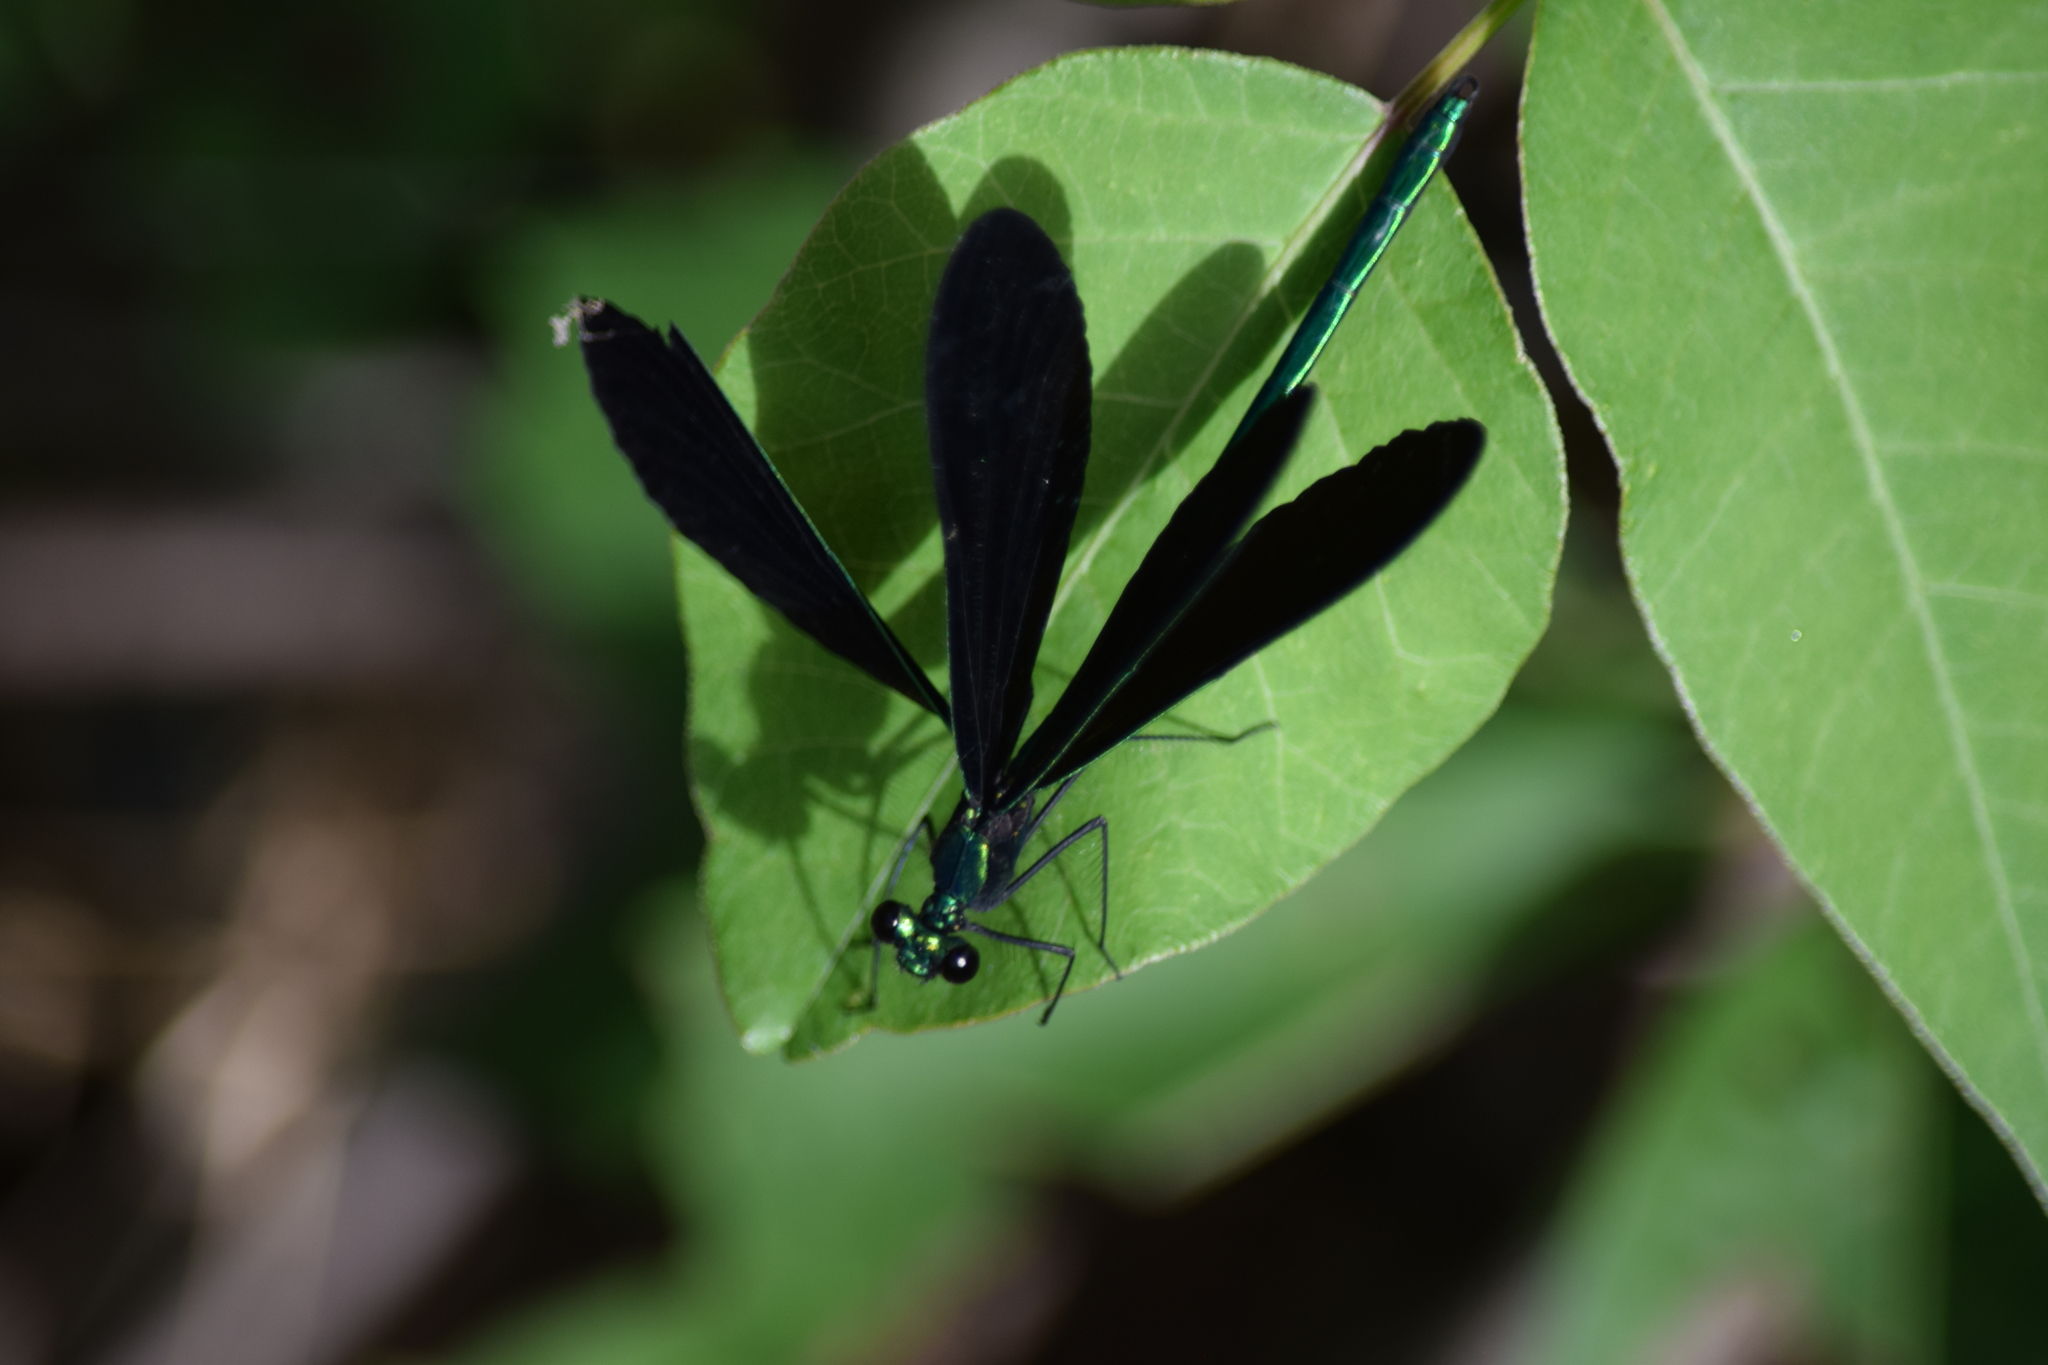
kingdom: Animalia
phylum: Arthropoda
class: Insecta
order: Odonata
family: Calopterygidae
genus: Calopteryx
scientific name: Calopteryx maculata
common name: Ebony jewelwing
